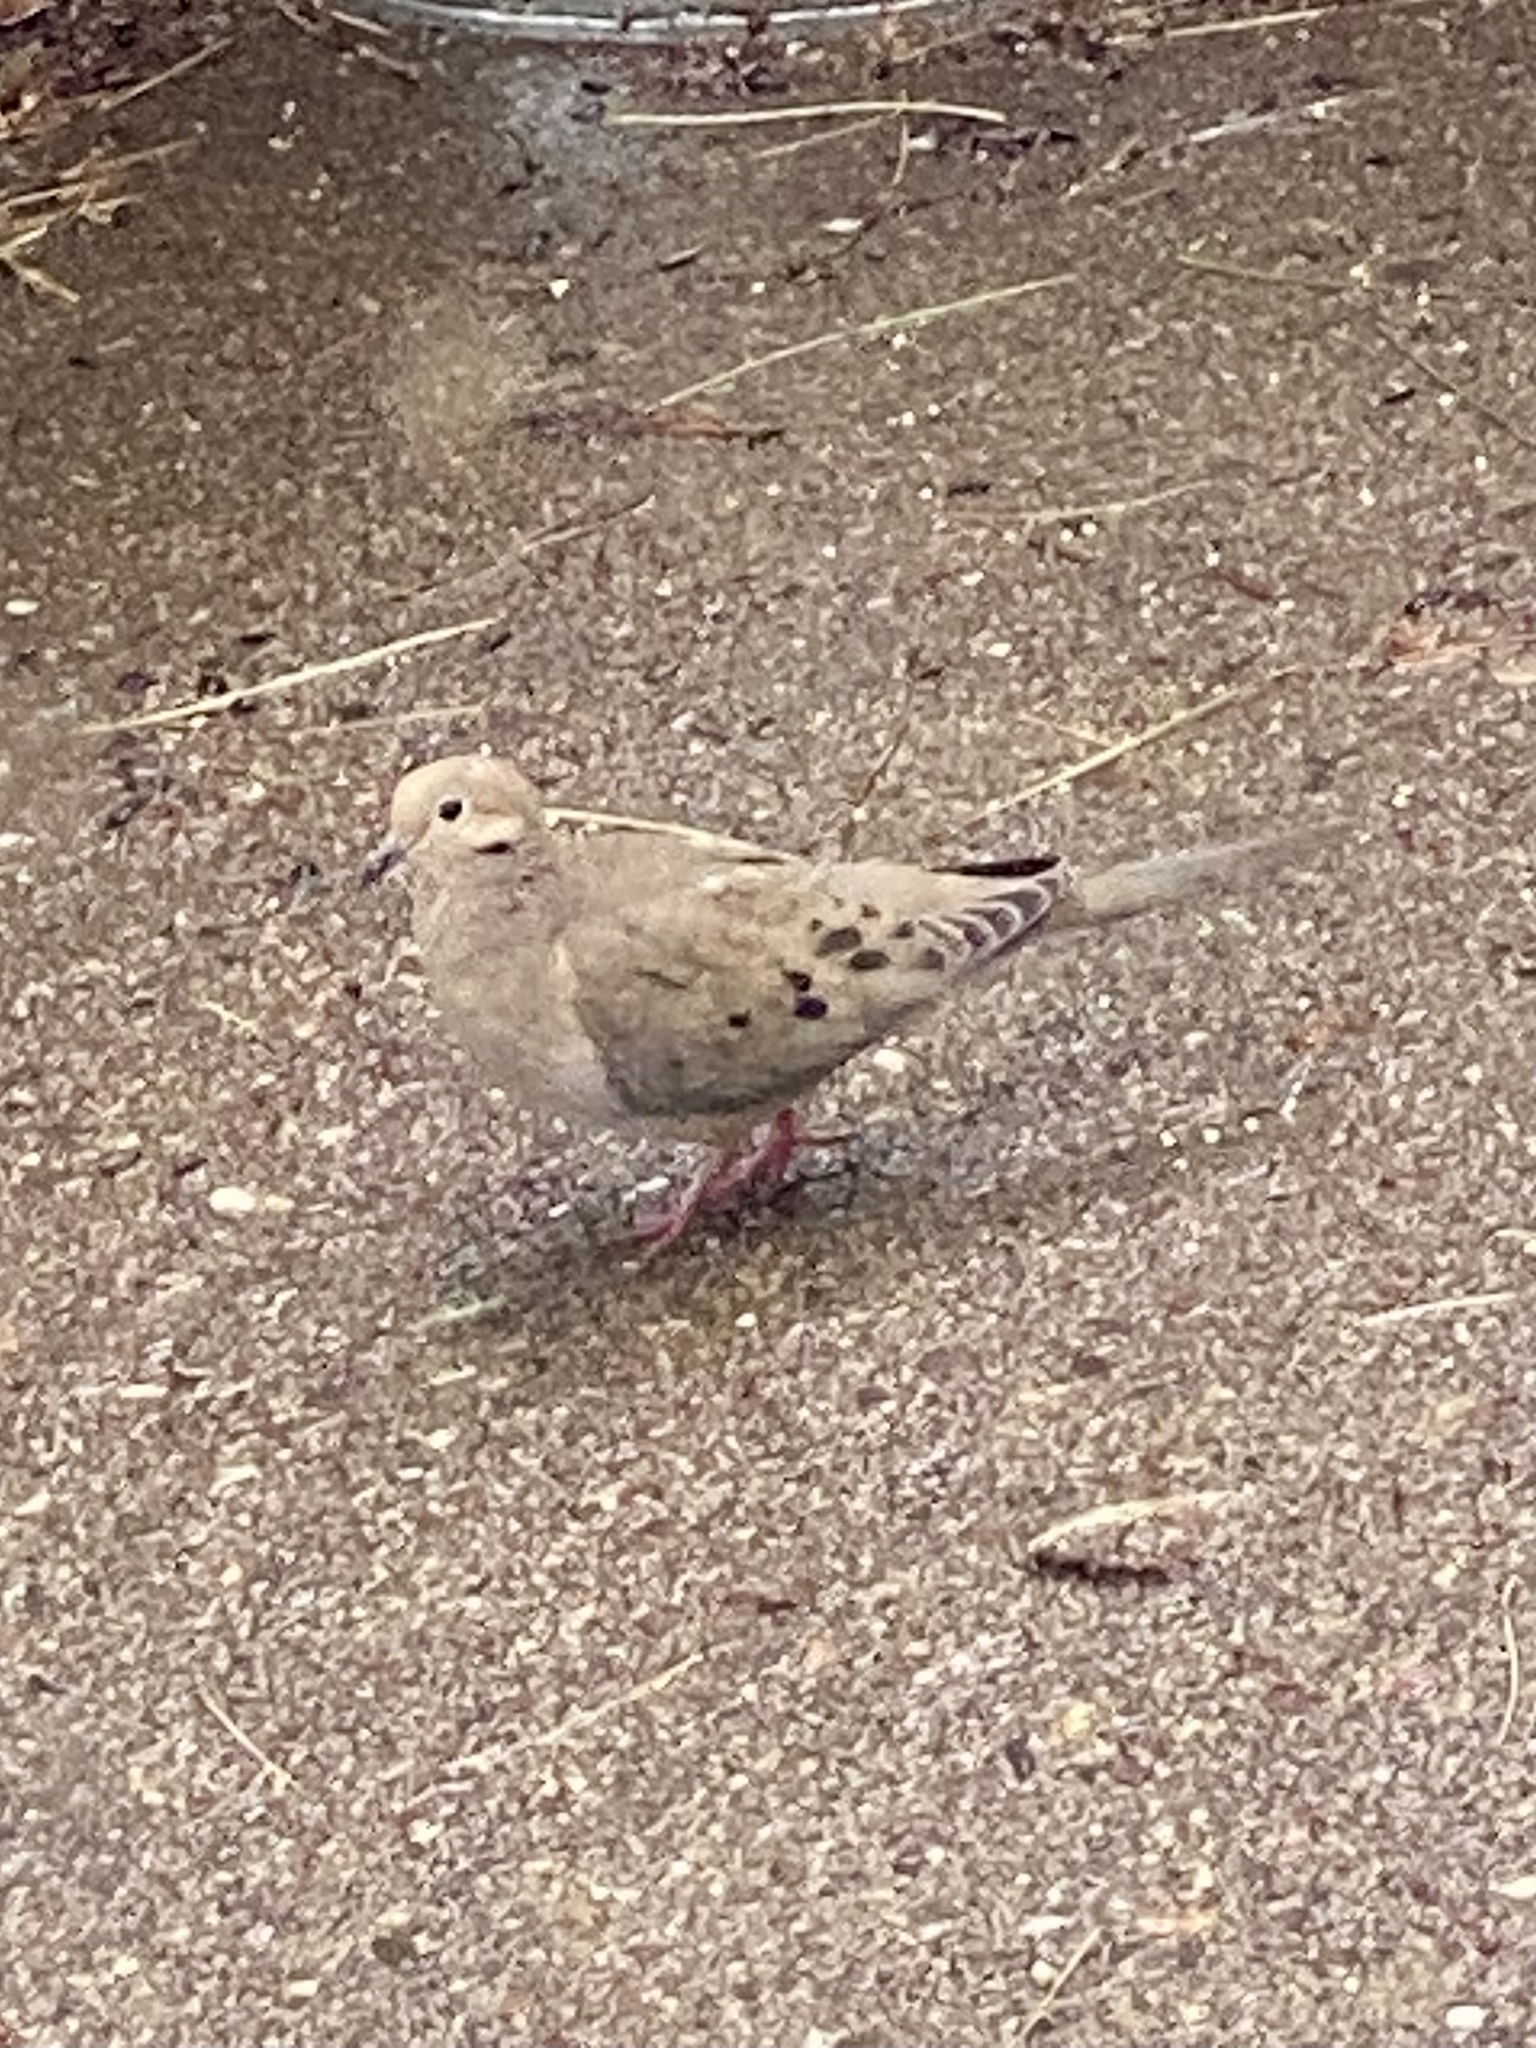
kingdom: Animalia
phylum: Chordata
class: Aves
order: Columbiformes
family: Columbidae
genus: Zenaida
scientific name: Zenaida macroura
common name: Mourning dove
